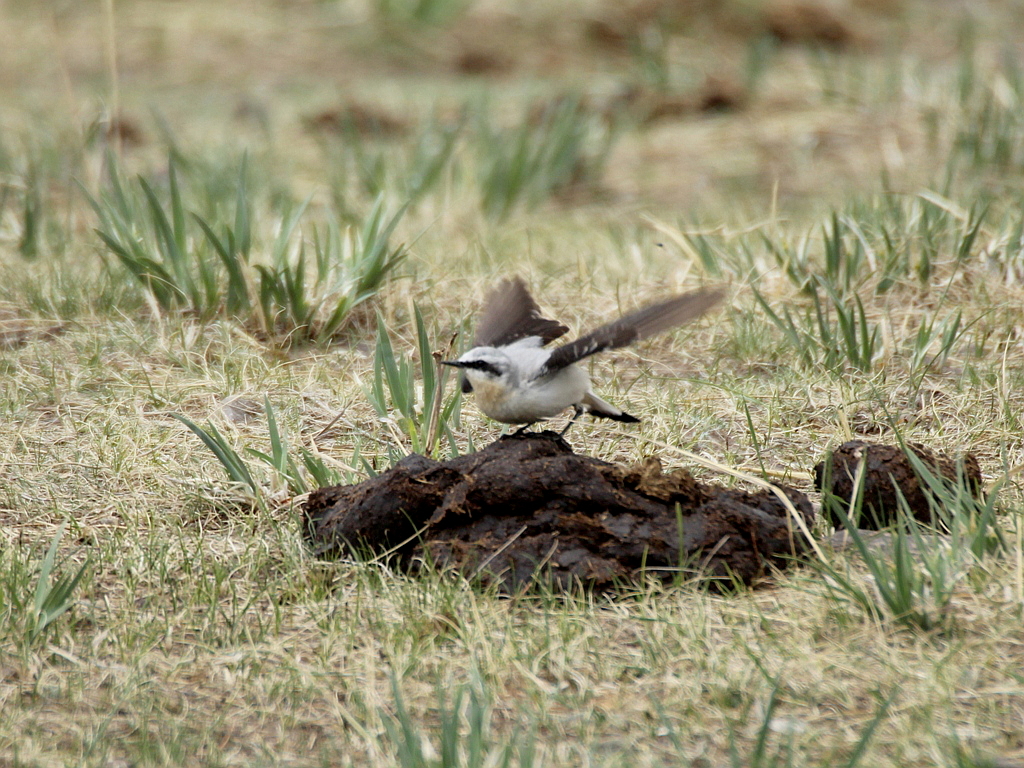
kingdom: Animalia
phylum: Chordata
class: Aves
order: Passeriformes
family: Muscicapidae
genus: Oenanthe
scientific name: Oenanthe oenanthe
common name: Northern wheatear
